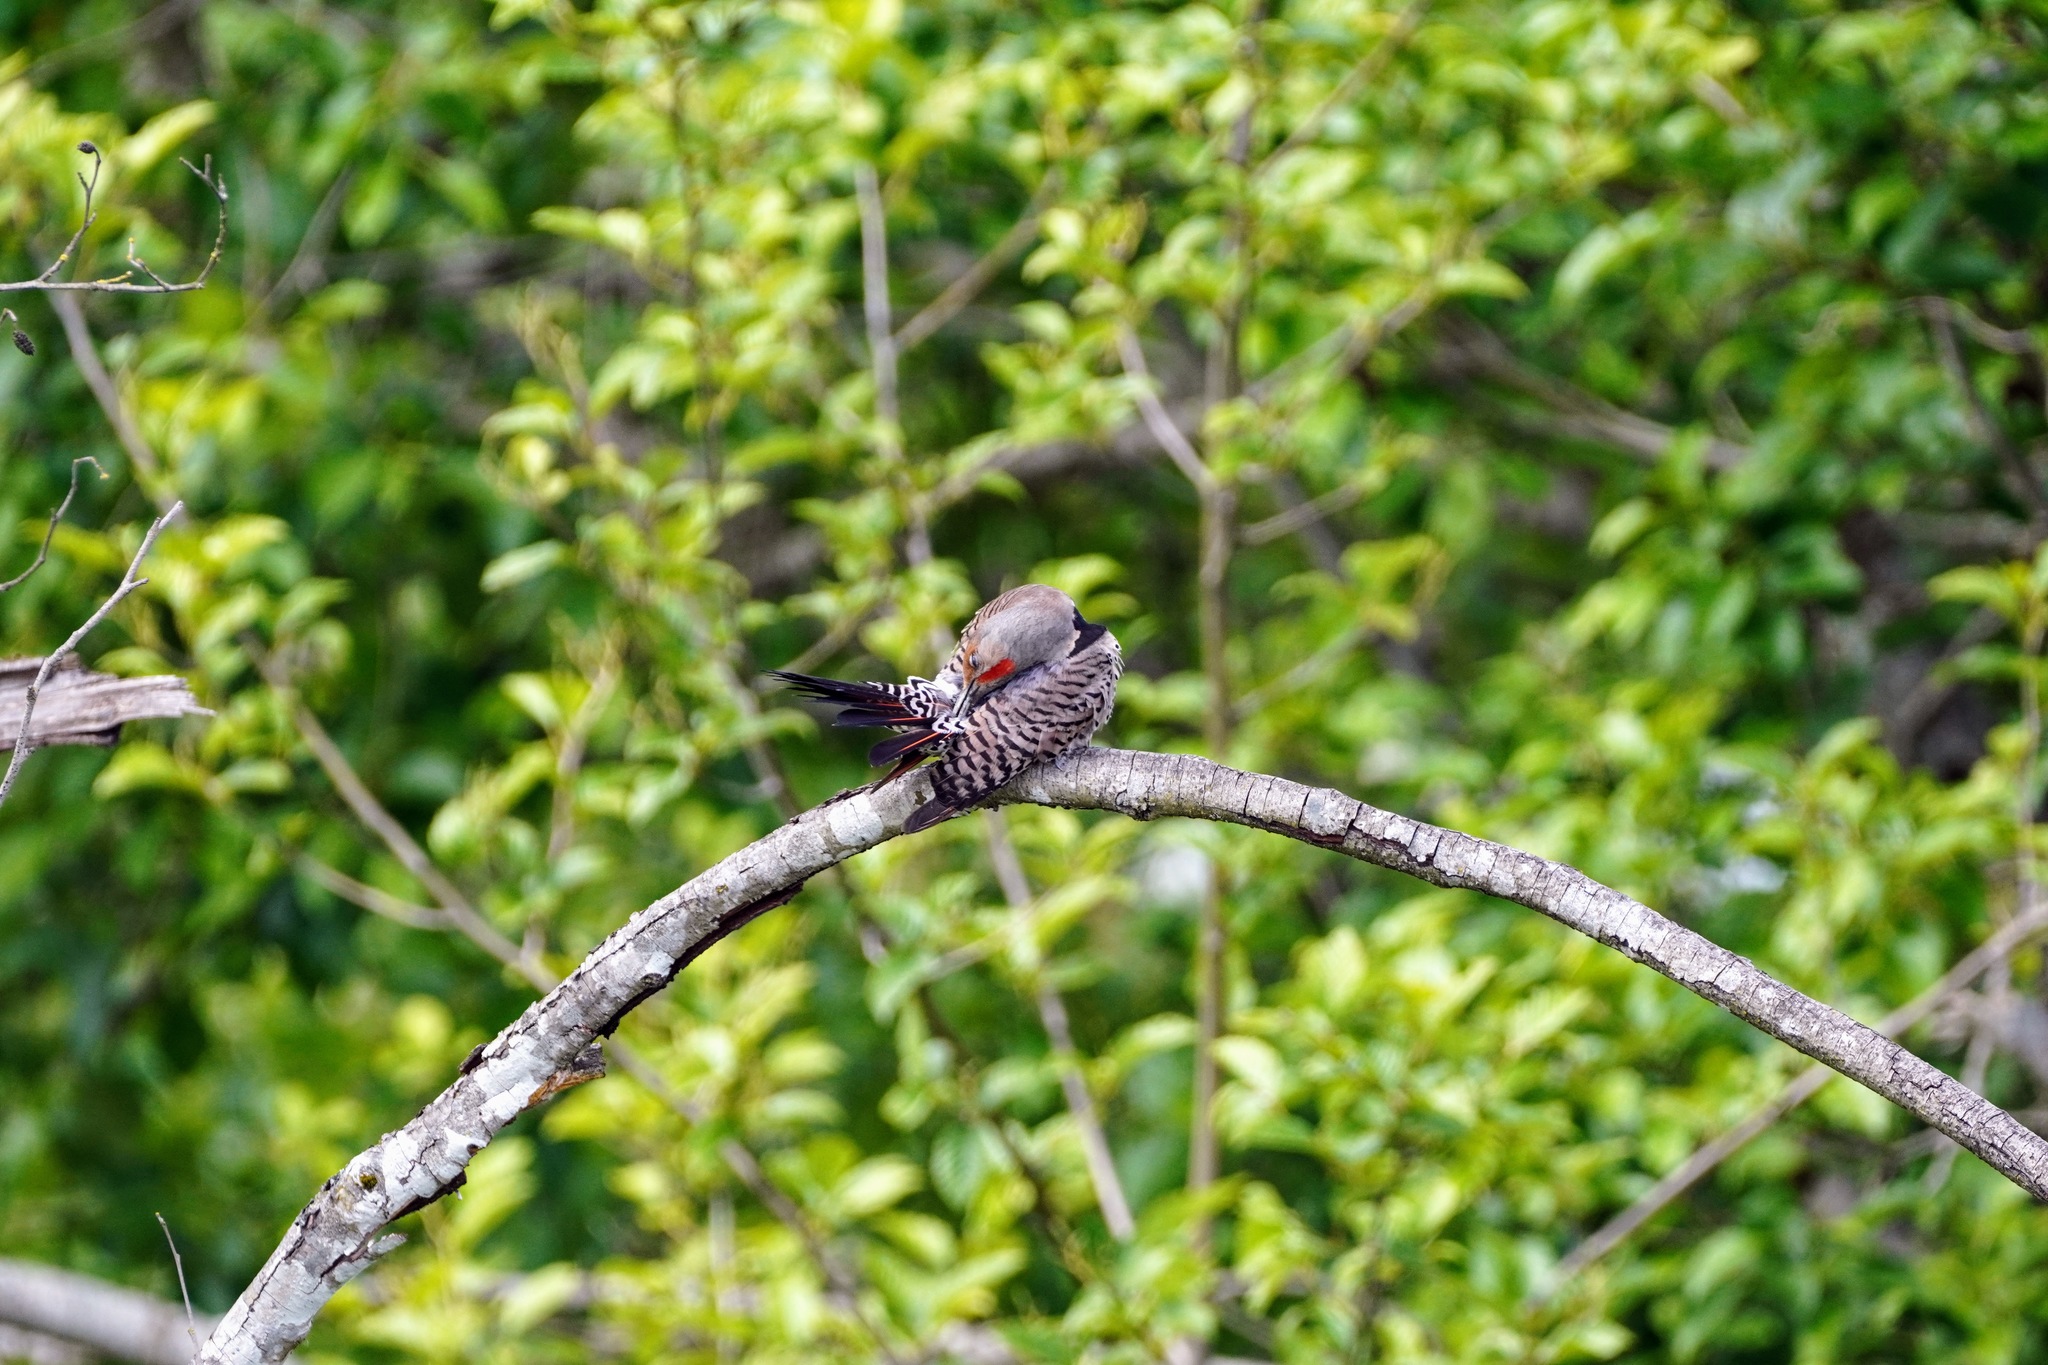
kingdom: Animalia
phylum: Chordata
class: Aves
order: Piciformes
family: Picidae
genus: Colaptes
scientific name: Colaptes auratus
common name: Northern flicker
